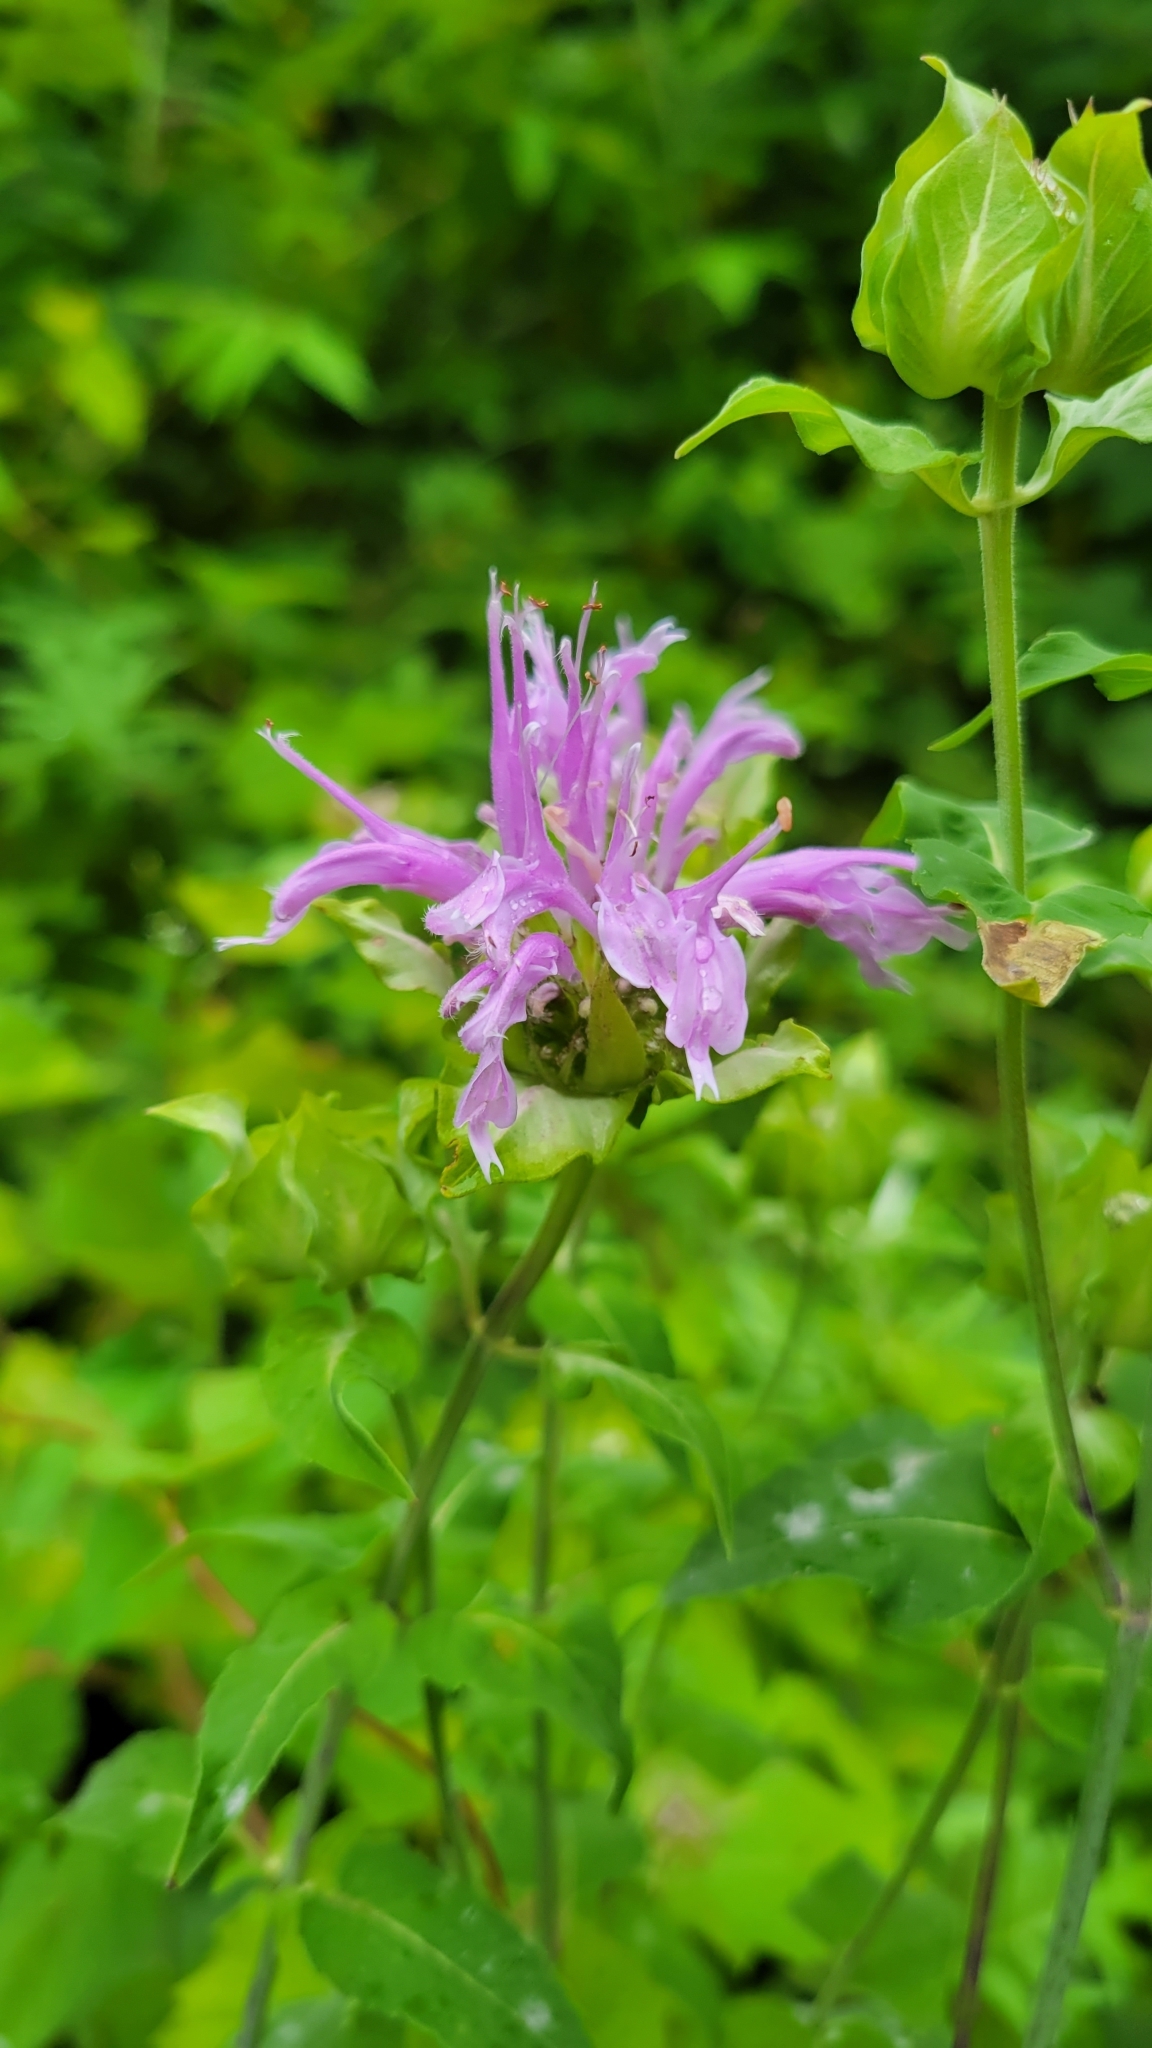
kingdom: Plantae
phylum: Tracheophyta
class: Magnoliopsida
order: Lamiales
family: Lamiaceae
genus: Monarda
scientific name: Monarda fistulosa
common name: Purple beebalm
